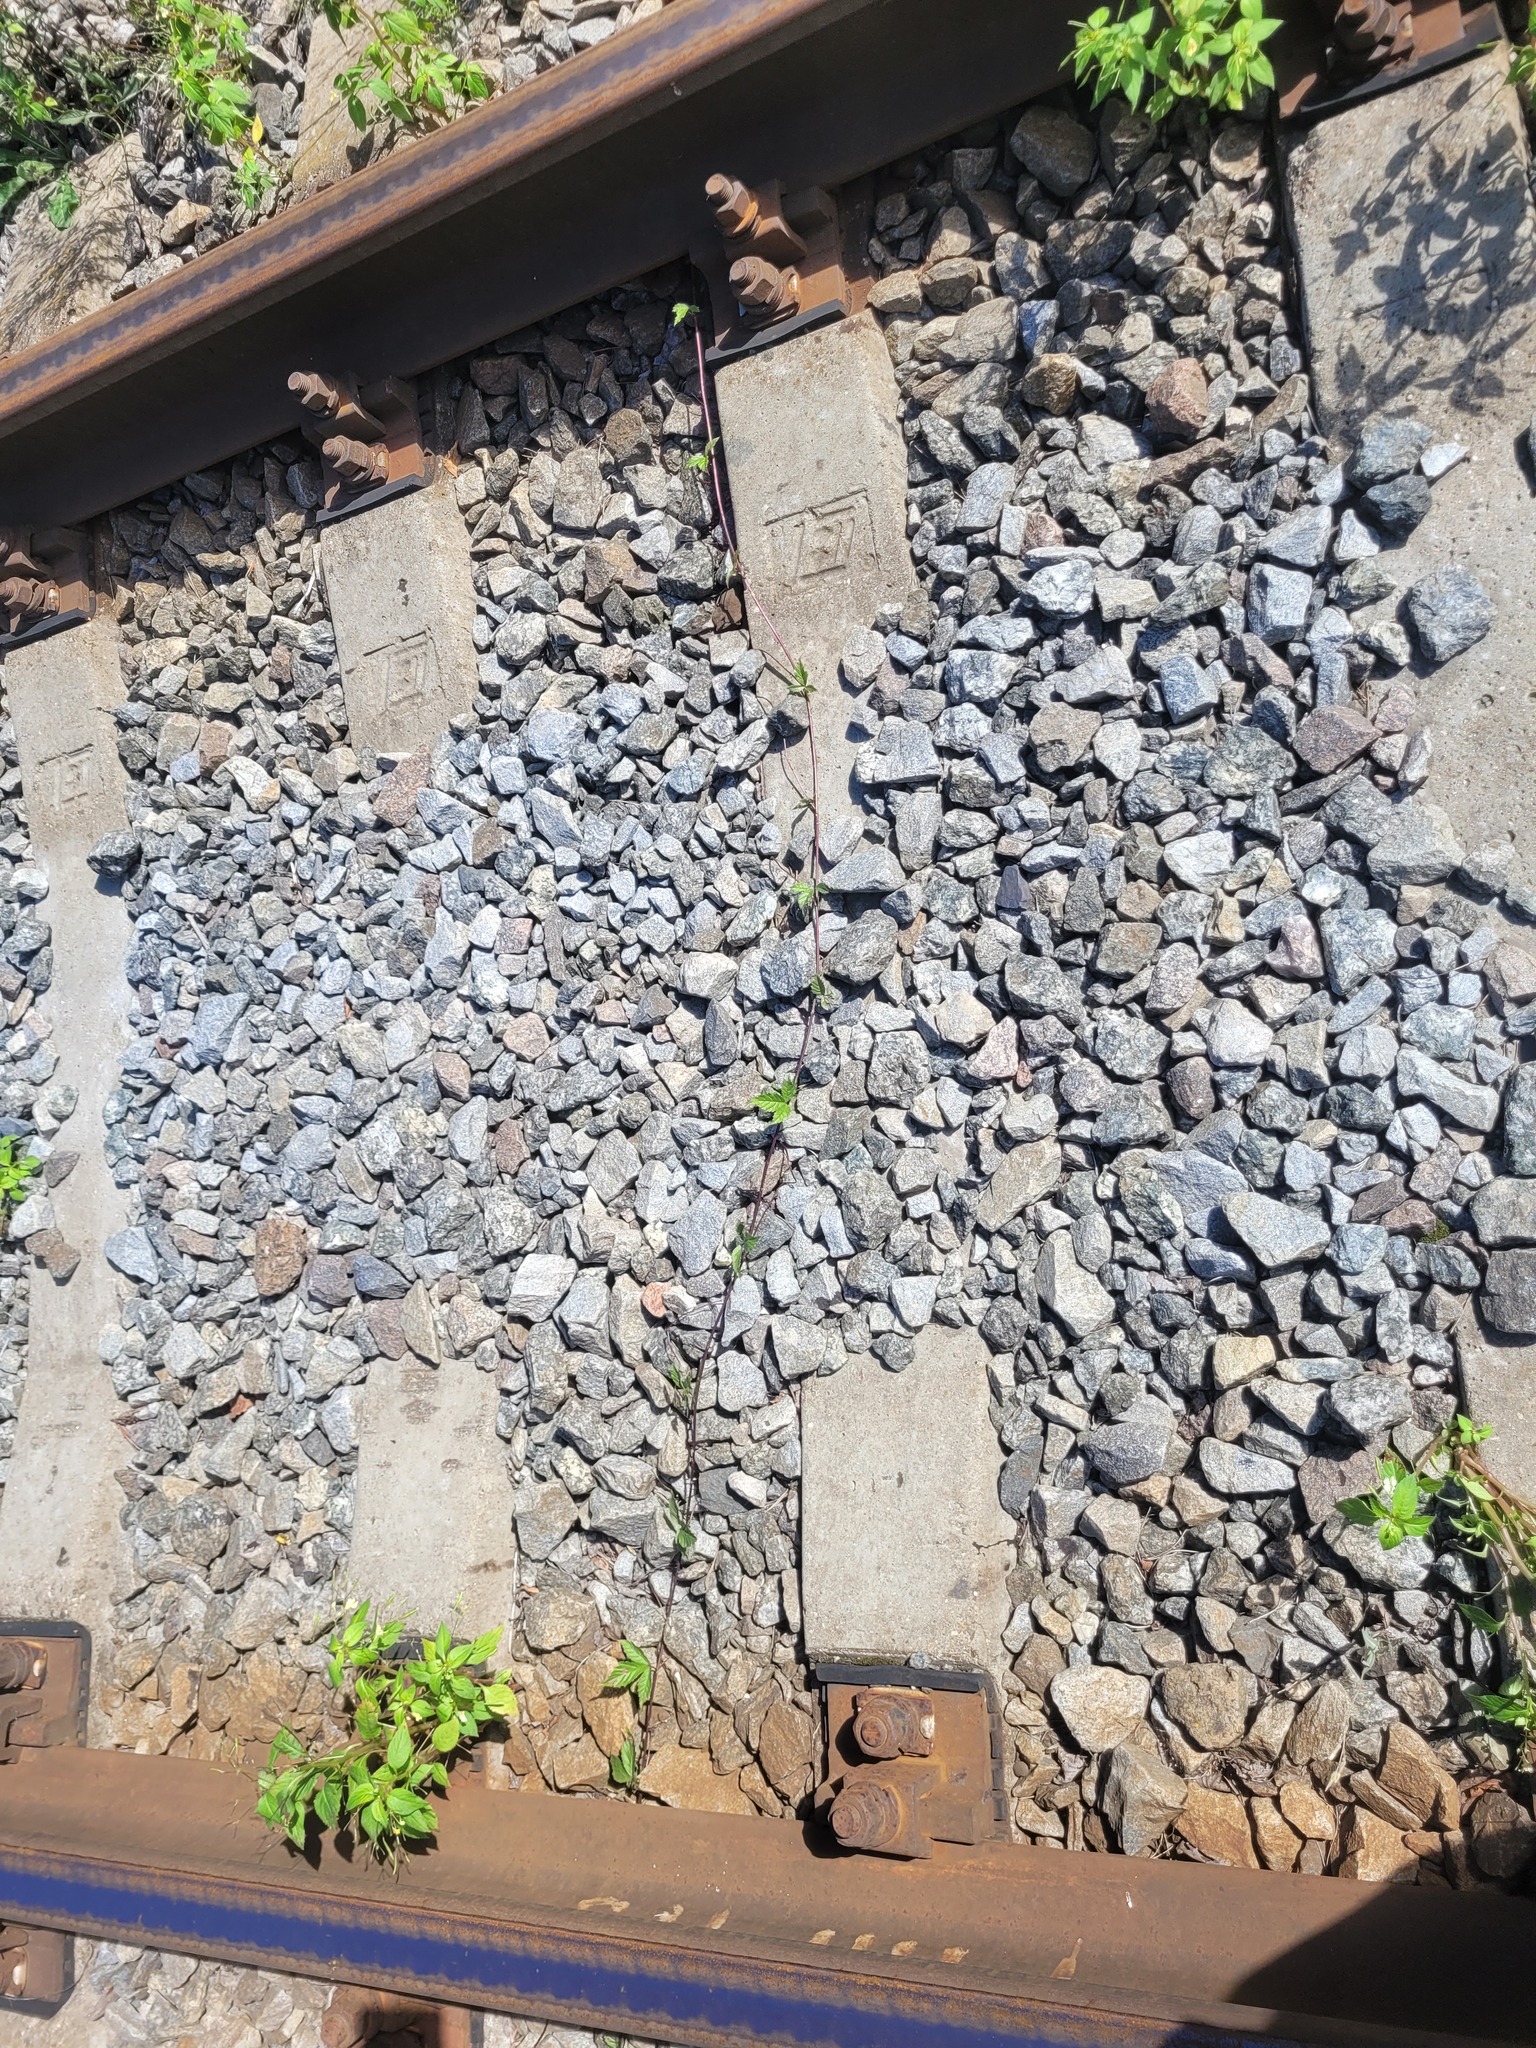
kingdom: Plantae
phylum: Tracheophyta
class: Magnoliopsida
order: Rosales
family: Rosaceae
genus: Rubus
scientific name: Rubus saxatilis
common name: Stone bramble
